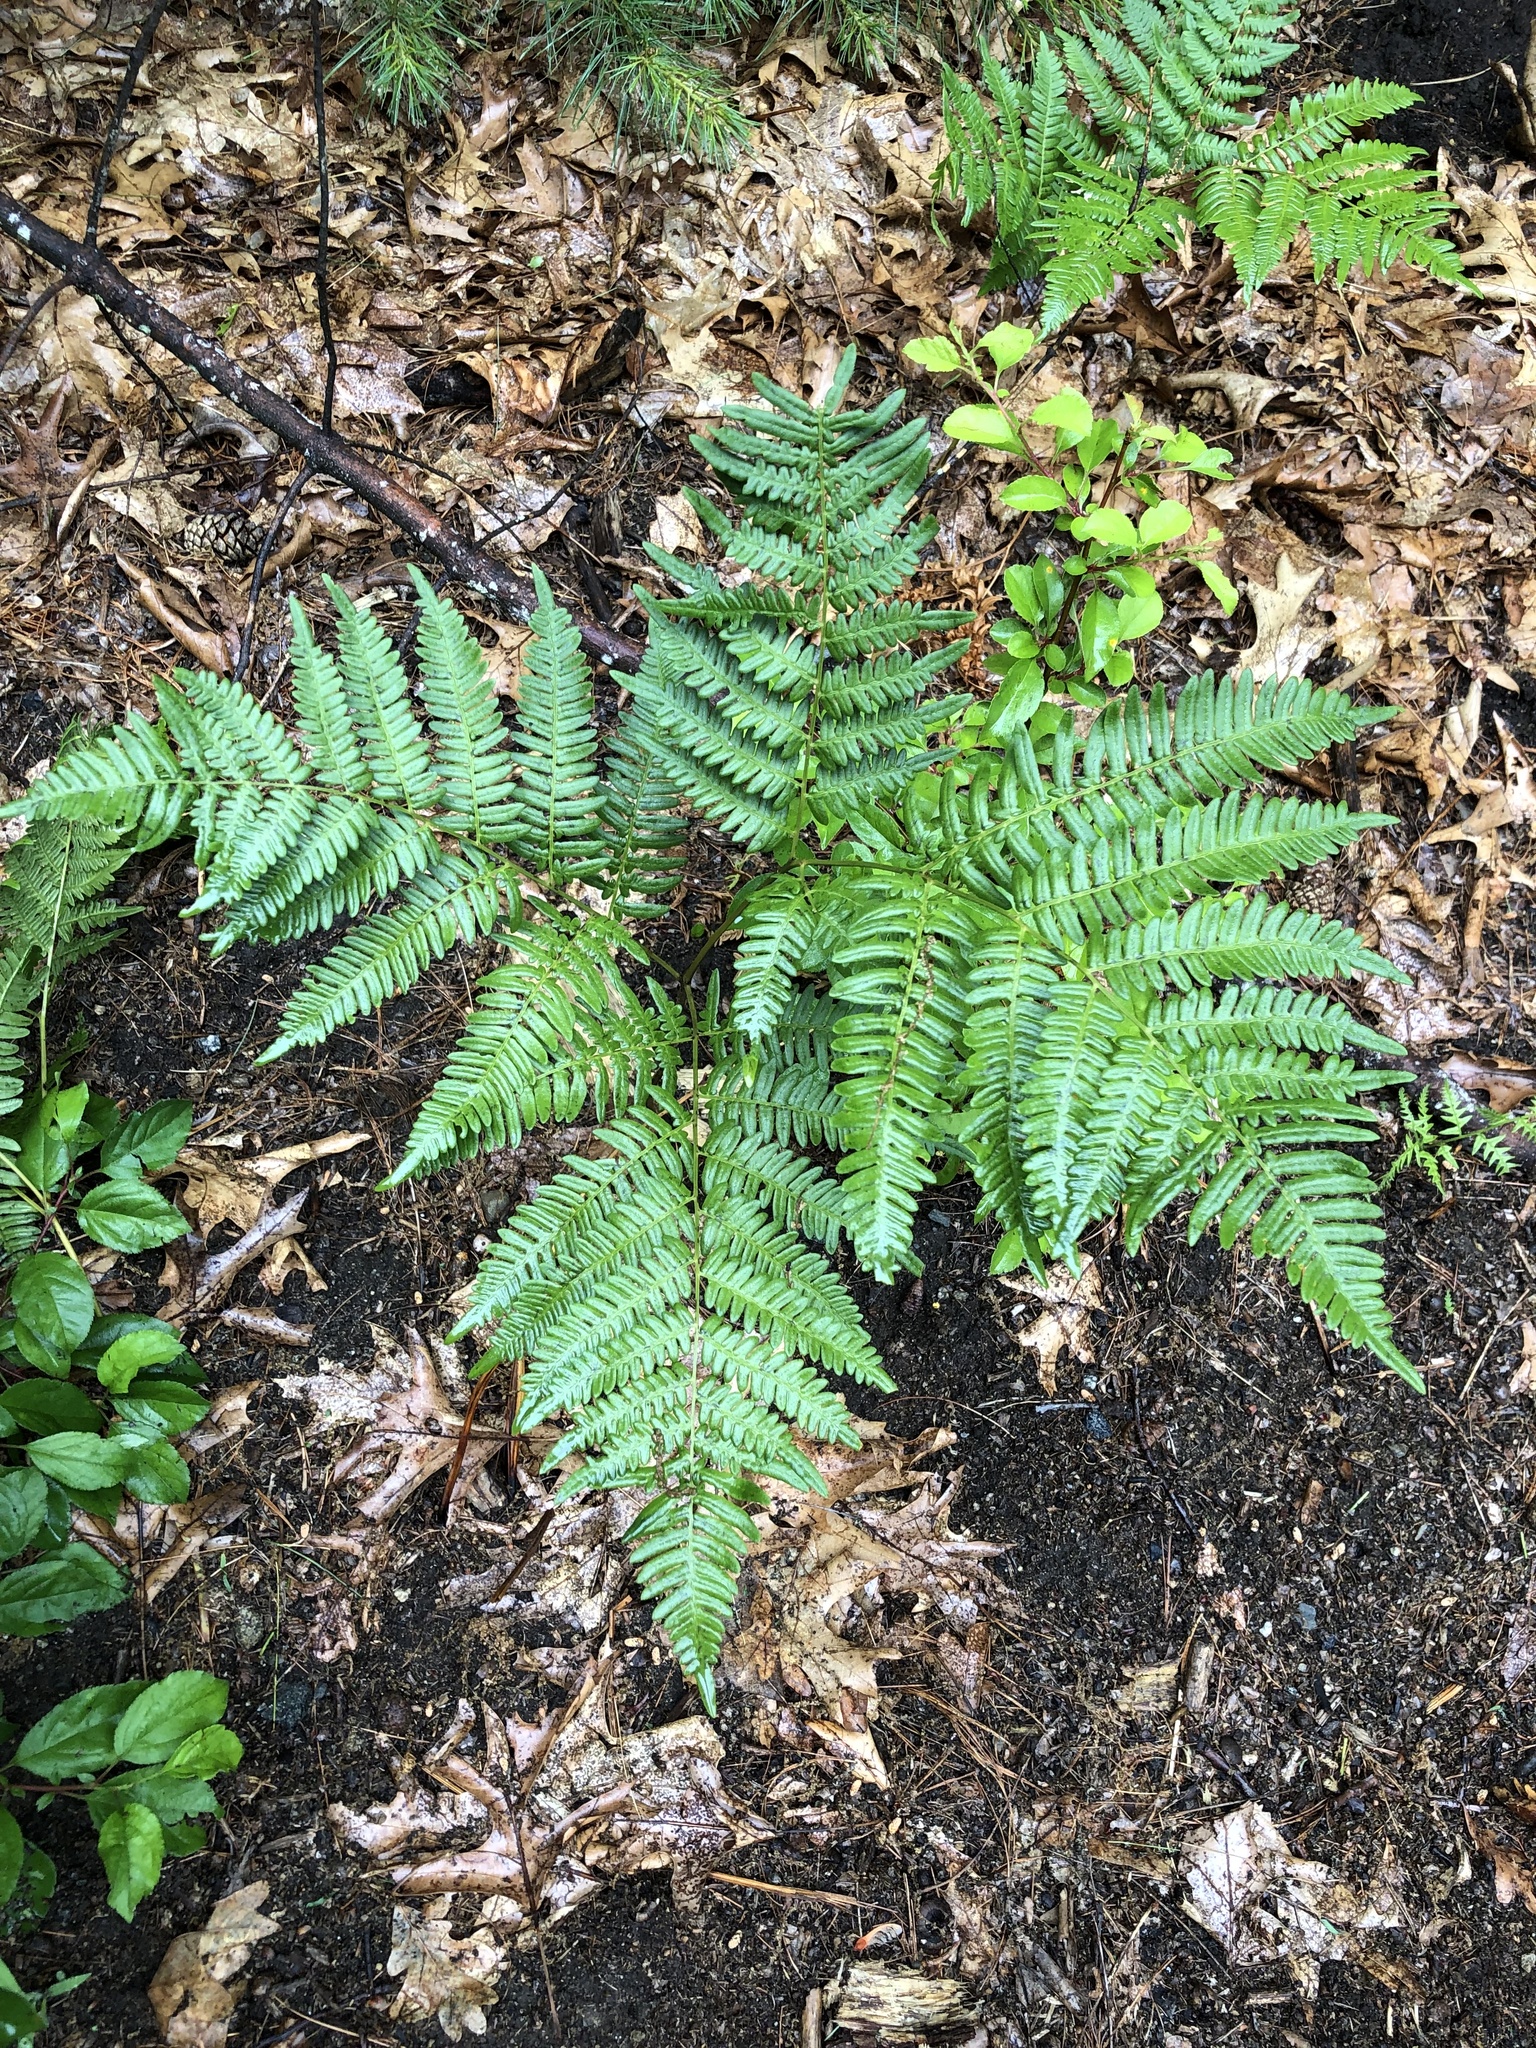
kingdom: Plantae
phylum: Tracheophyta
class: Polypodiopsida
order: Polypodiales
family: Dennstaedtiaceae
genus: Pteridium
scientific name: Pteridium aquilinum
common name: Bracken
